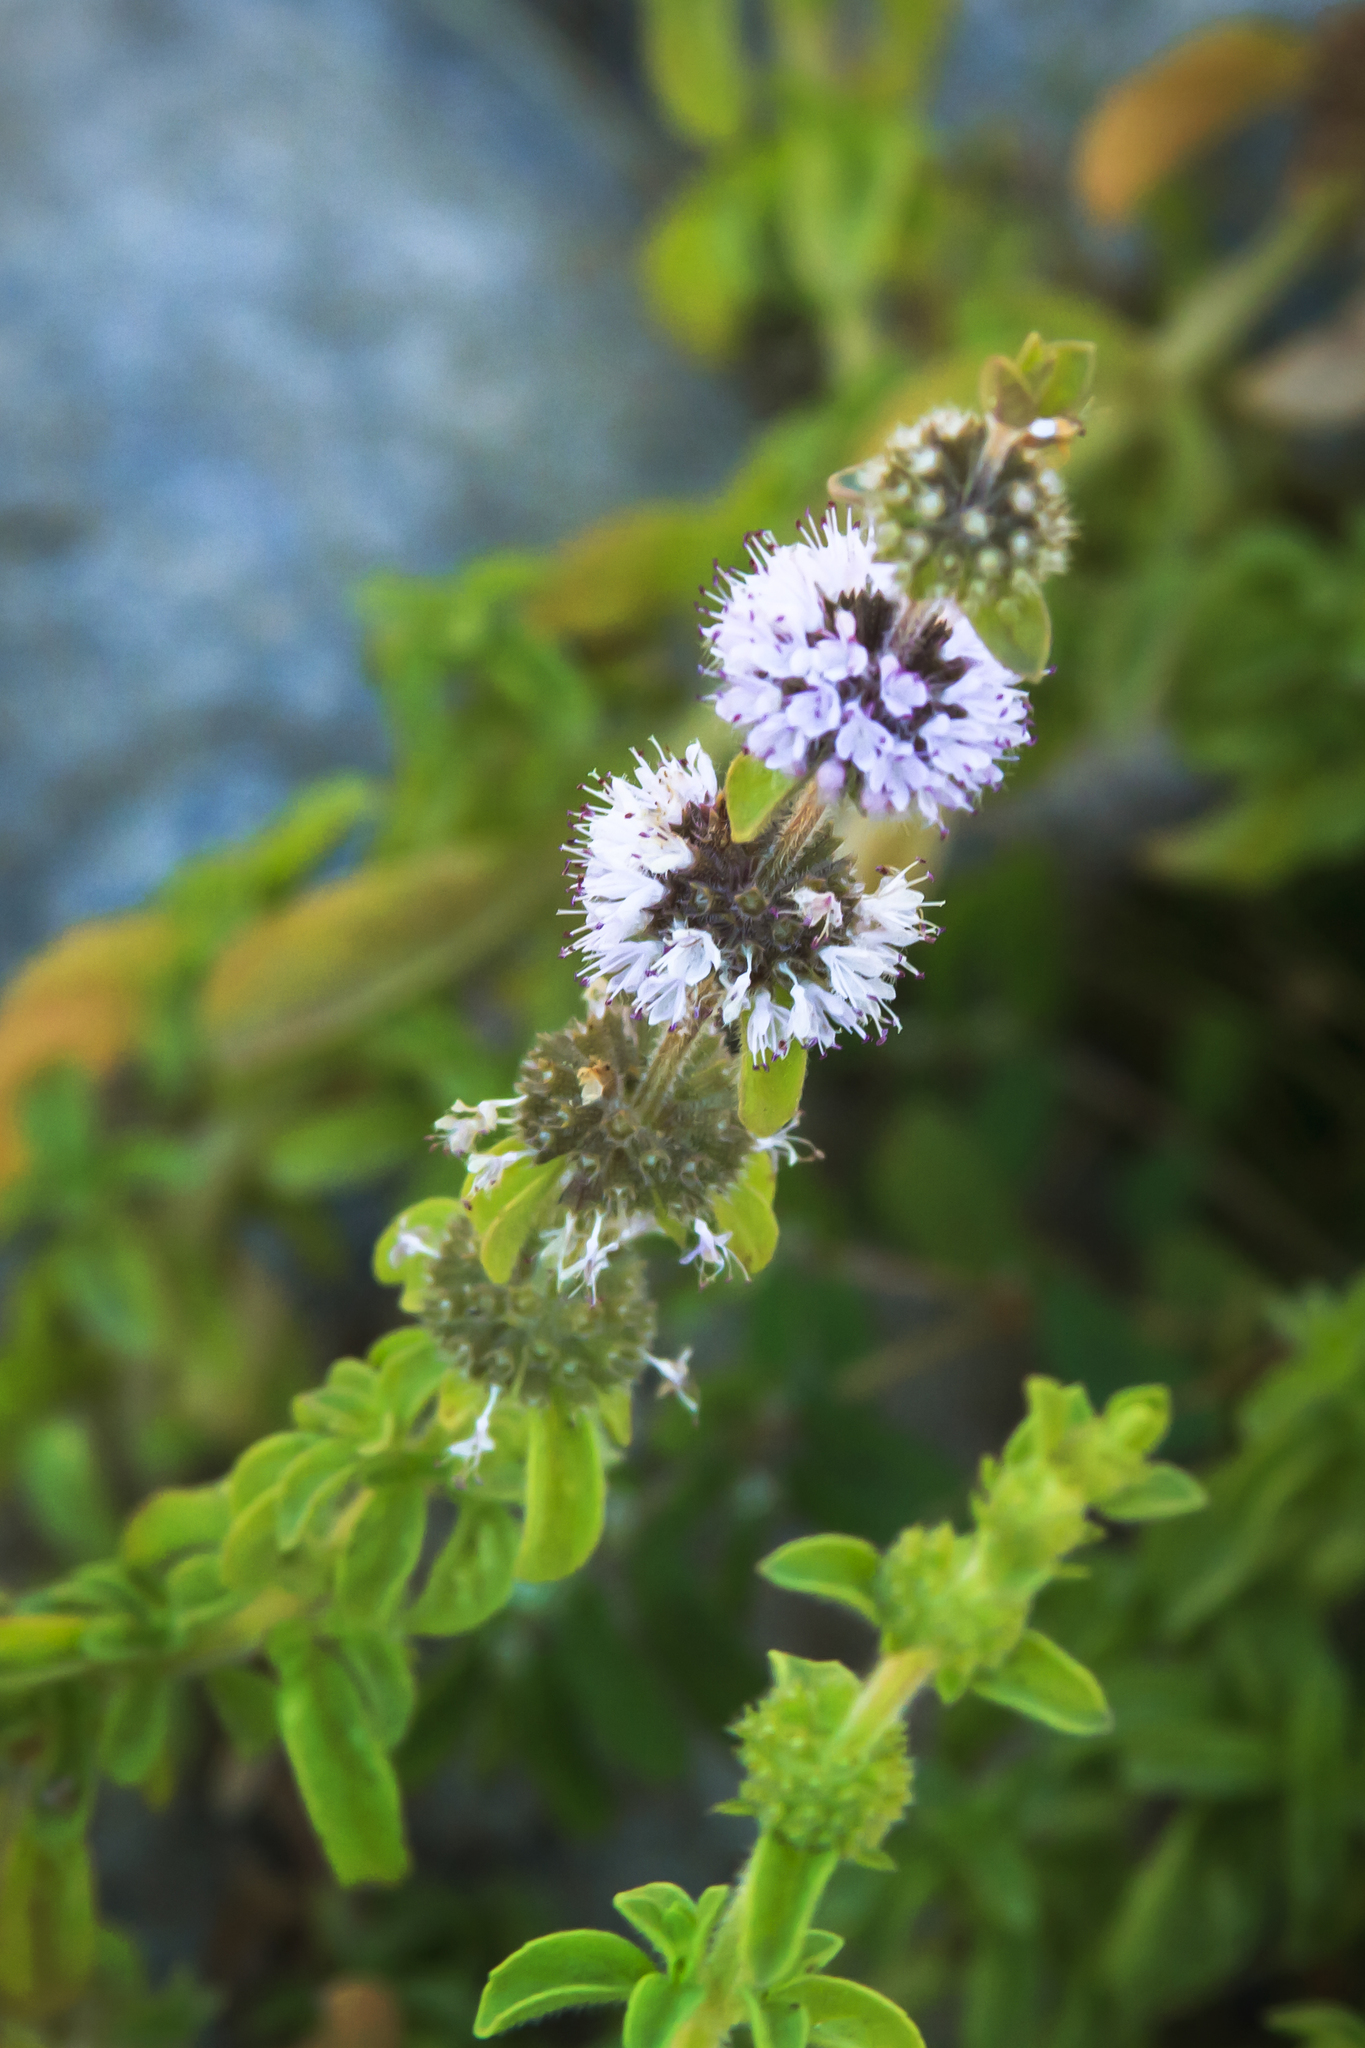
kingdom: Plantae
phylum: Tracheophyta
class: Magnoliopsida
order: Lamiales
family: Lamiaceae
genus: Mentha
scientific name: Mentha pulegium
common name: Pennyroyal
